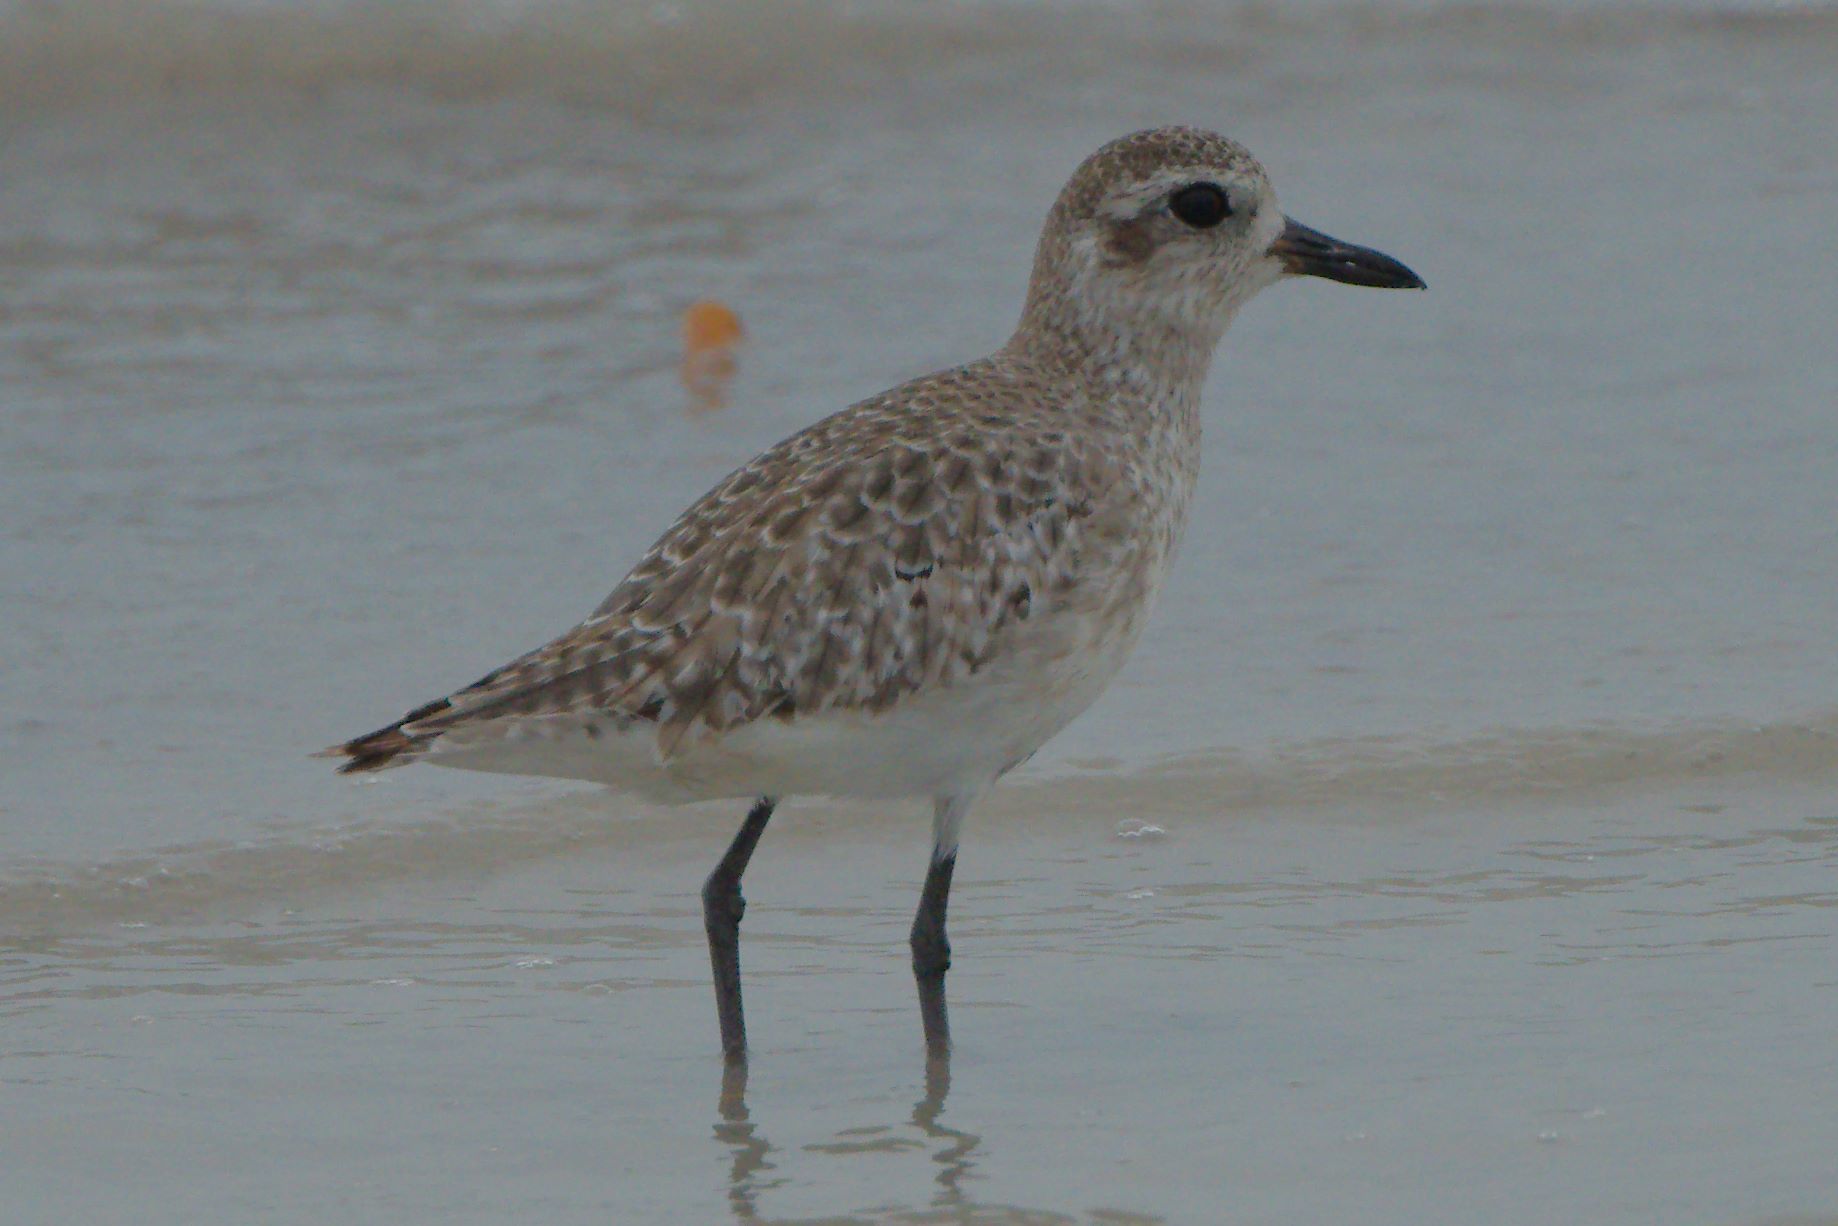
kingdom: Animalia
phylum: Chordata
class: Aves
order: Charadriiformes
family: Charadriidae
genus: Pluvialis
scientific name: Pluvialis squatarola
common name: Grey plover
